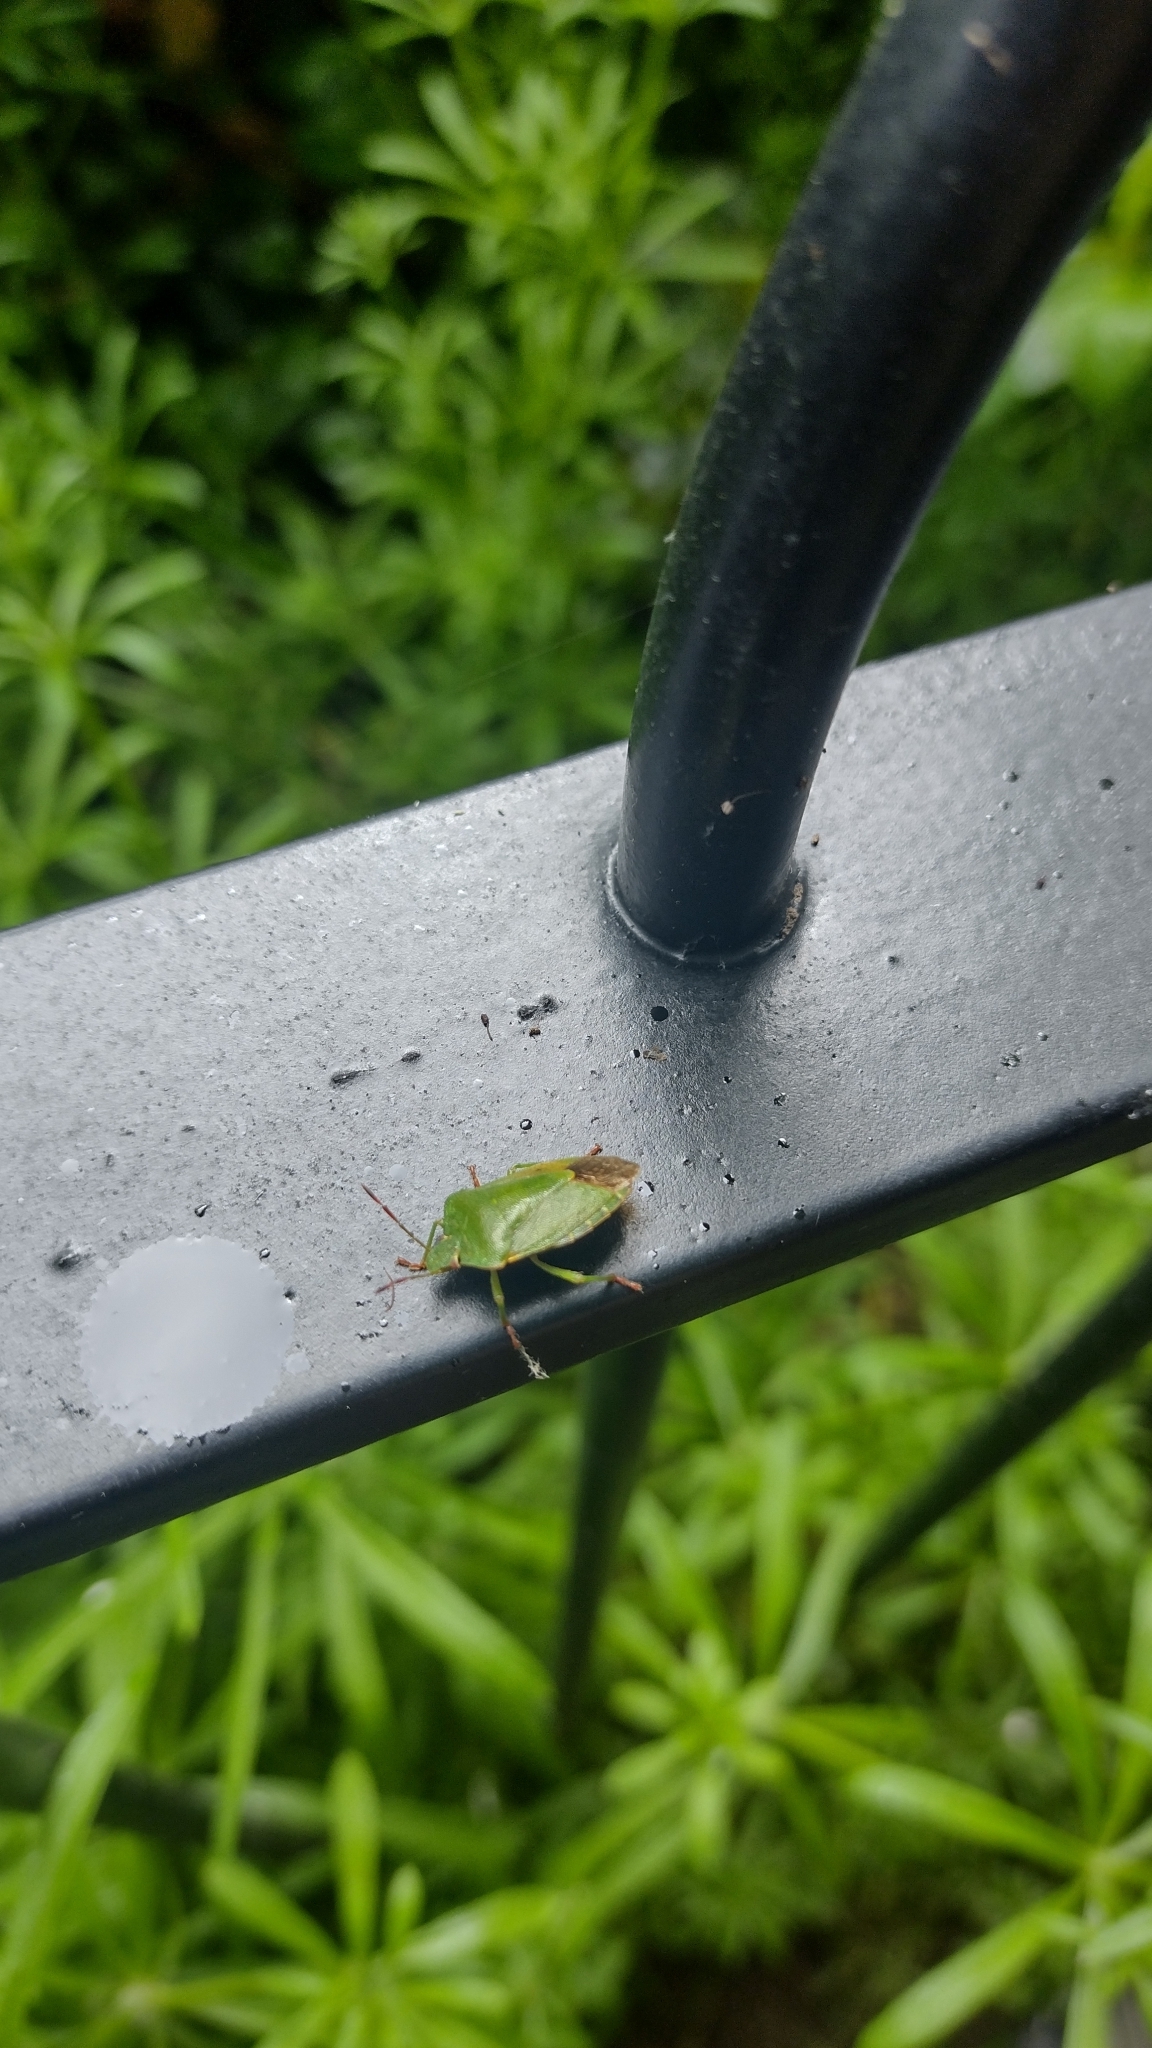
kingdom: Animalia
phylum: Arthropoda
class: Insecta
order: Hemiptera
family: Pentatomidae
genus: Palomena
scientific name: Palomena prasina
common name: Green shieldbug
